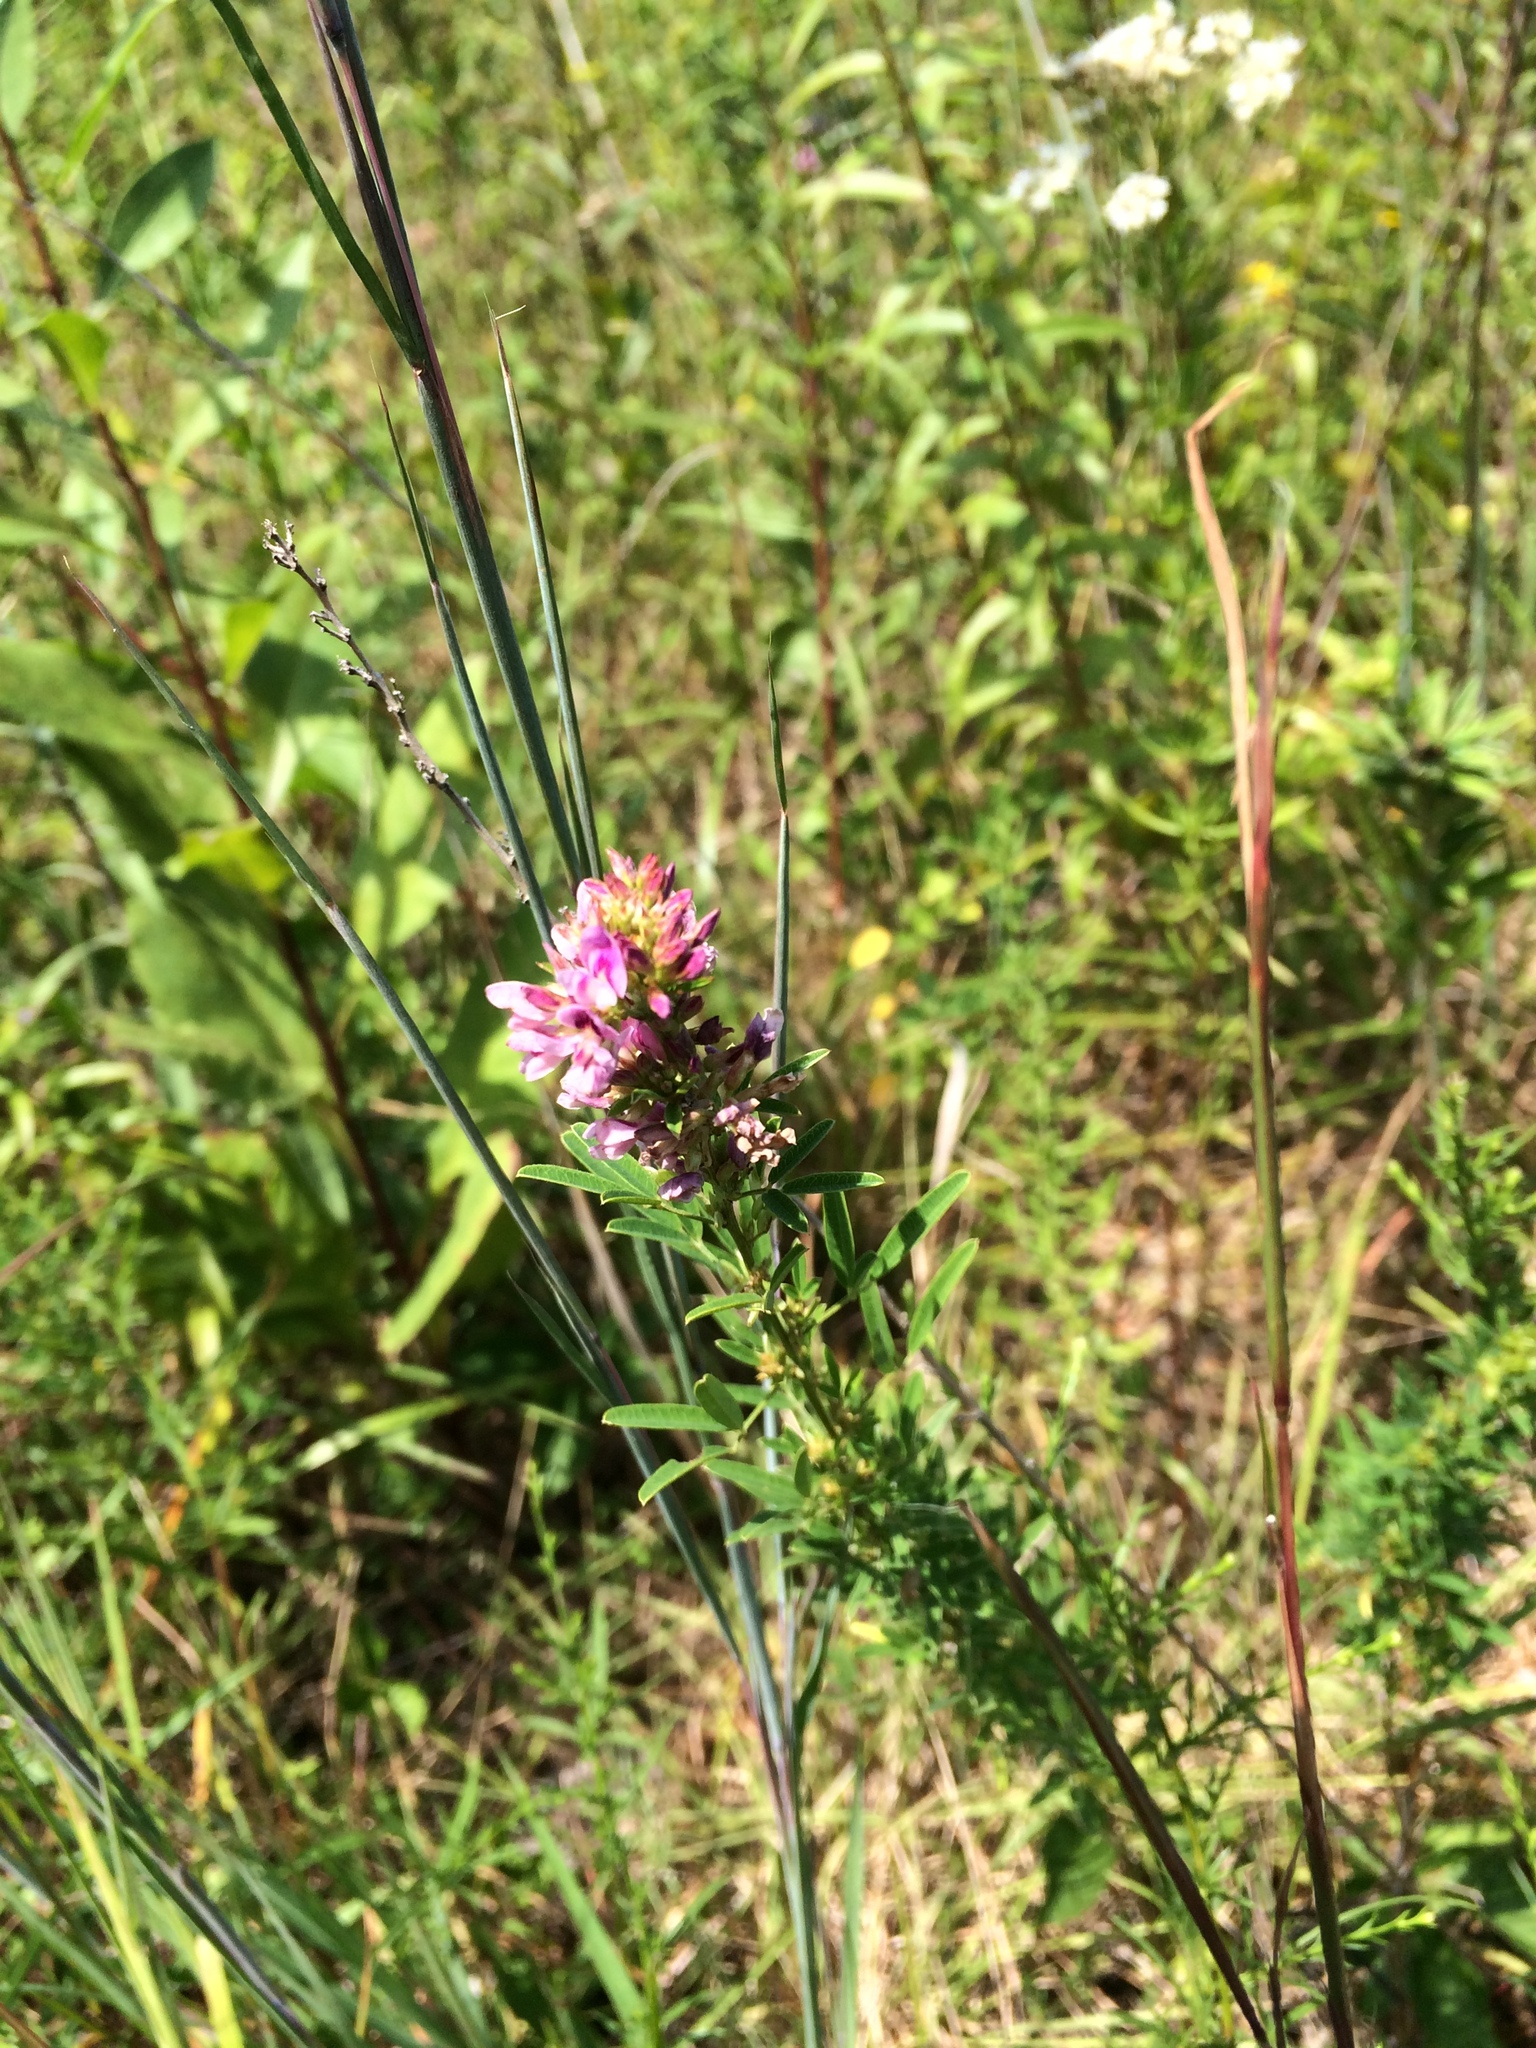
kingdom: Plantae
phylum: Tracheophyta
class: Magnoliopsida
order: Fabales
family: Fabaceae
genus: Lespedeza
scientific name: Lespedeza virginica
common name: Slender bush-clover
